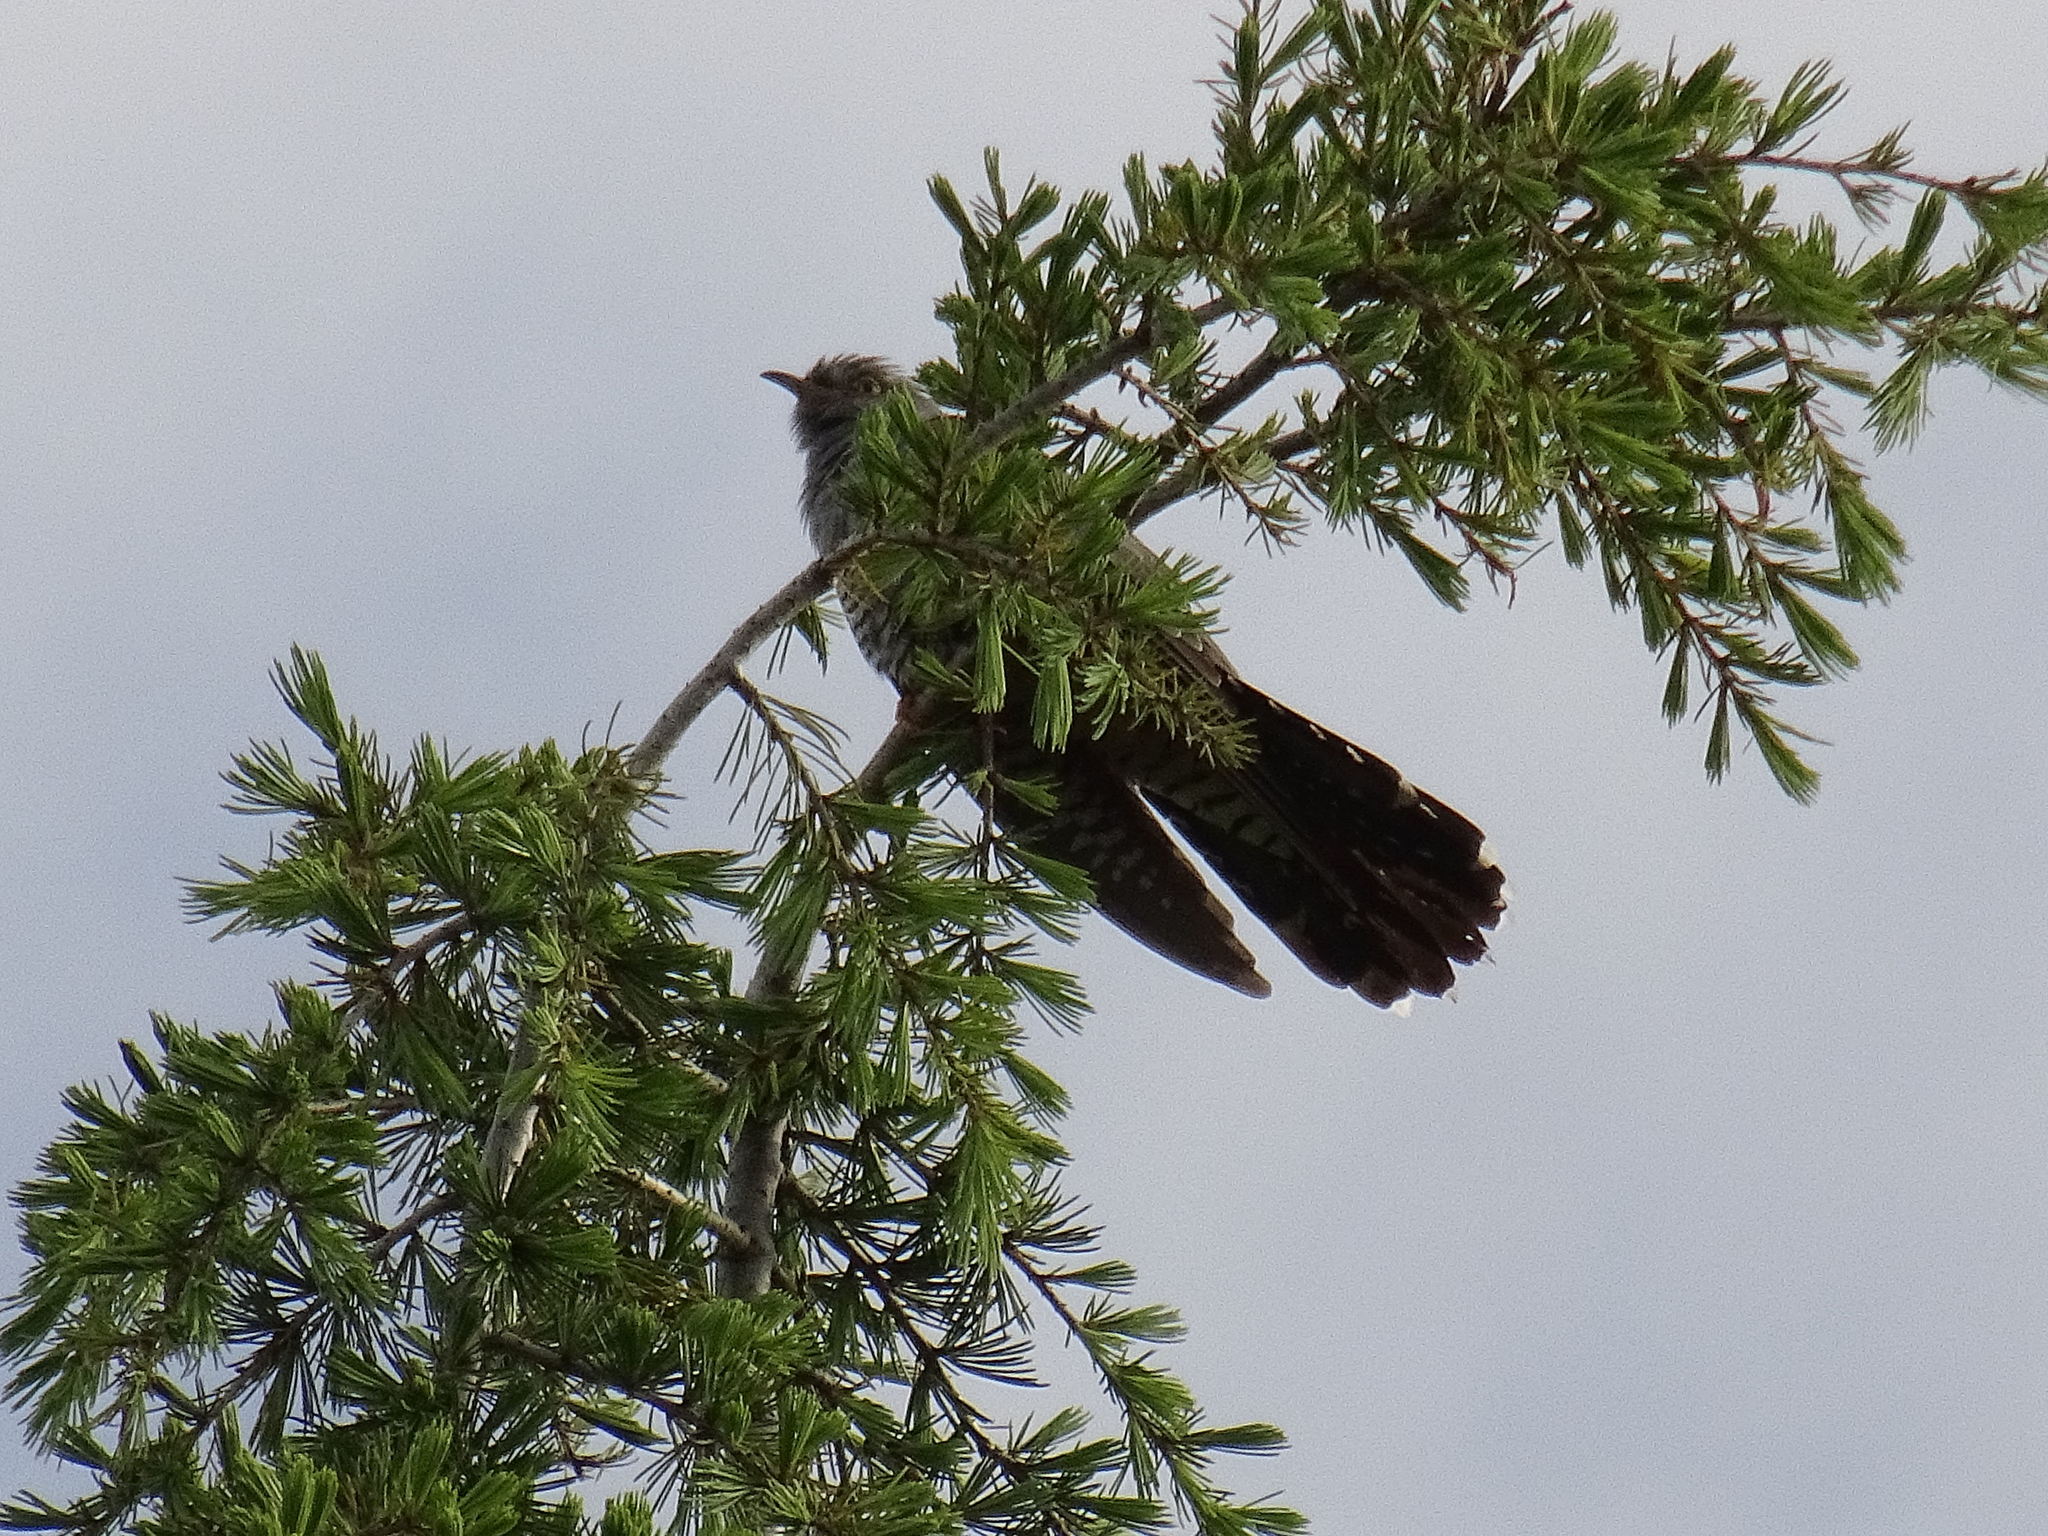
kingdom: Animalia
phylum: Chordata
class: Aves
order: Cuculiformes
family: Cuculidae
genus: Cuculus
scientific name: Cuculus canorus
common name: Common cuckoo
